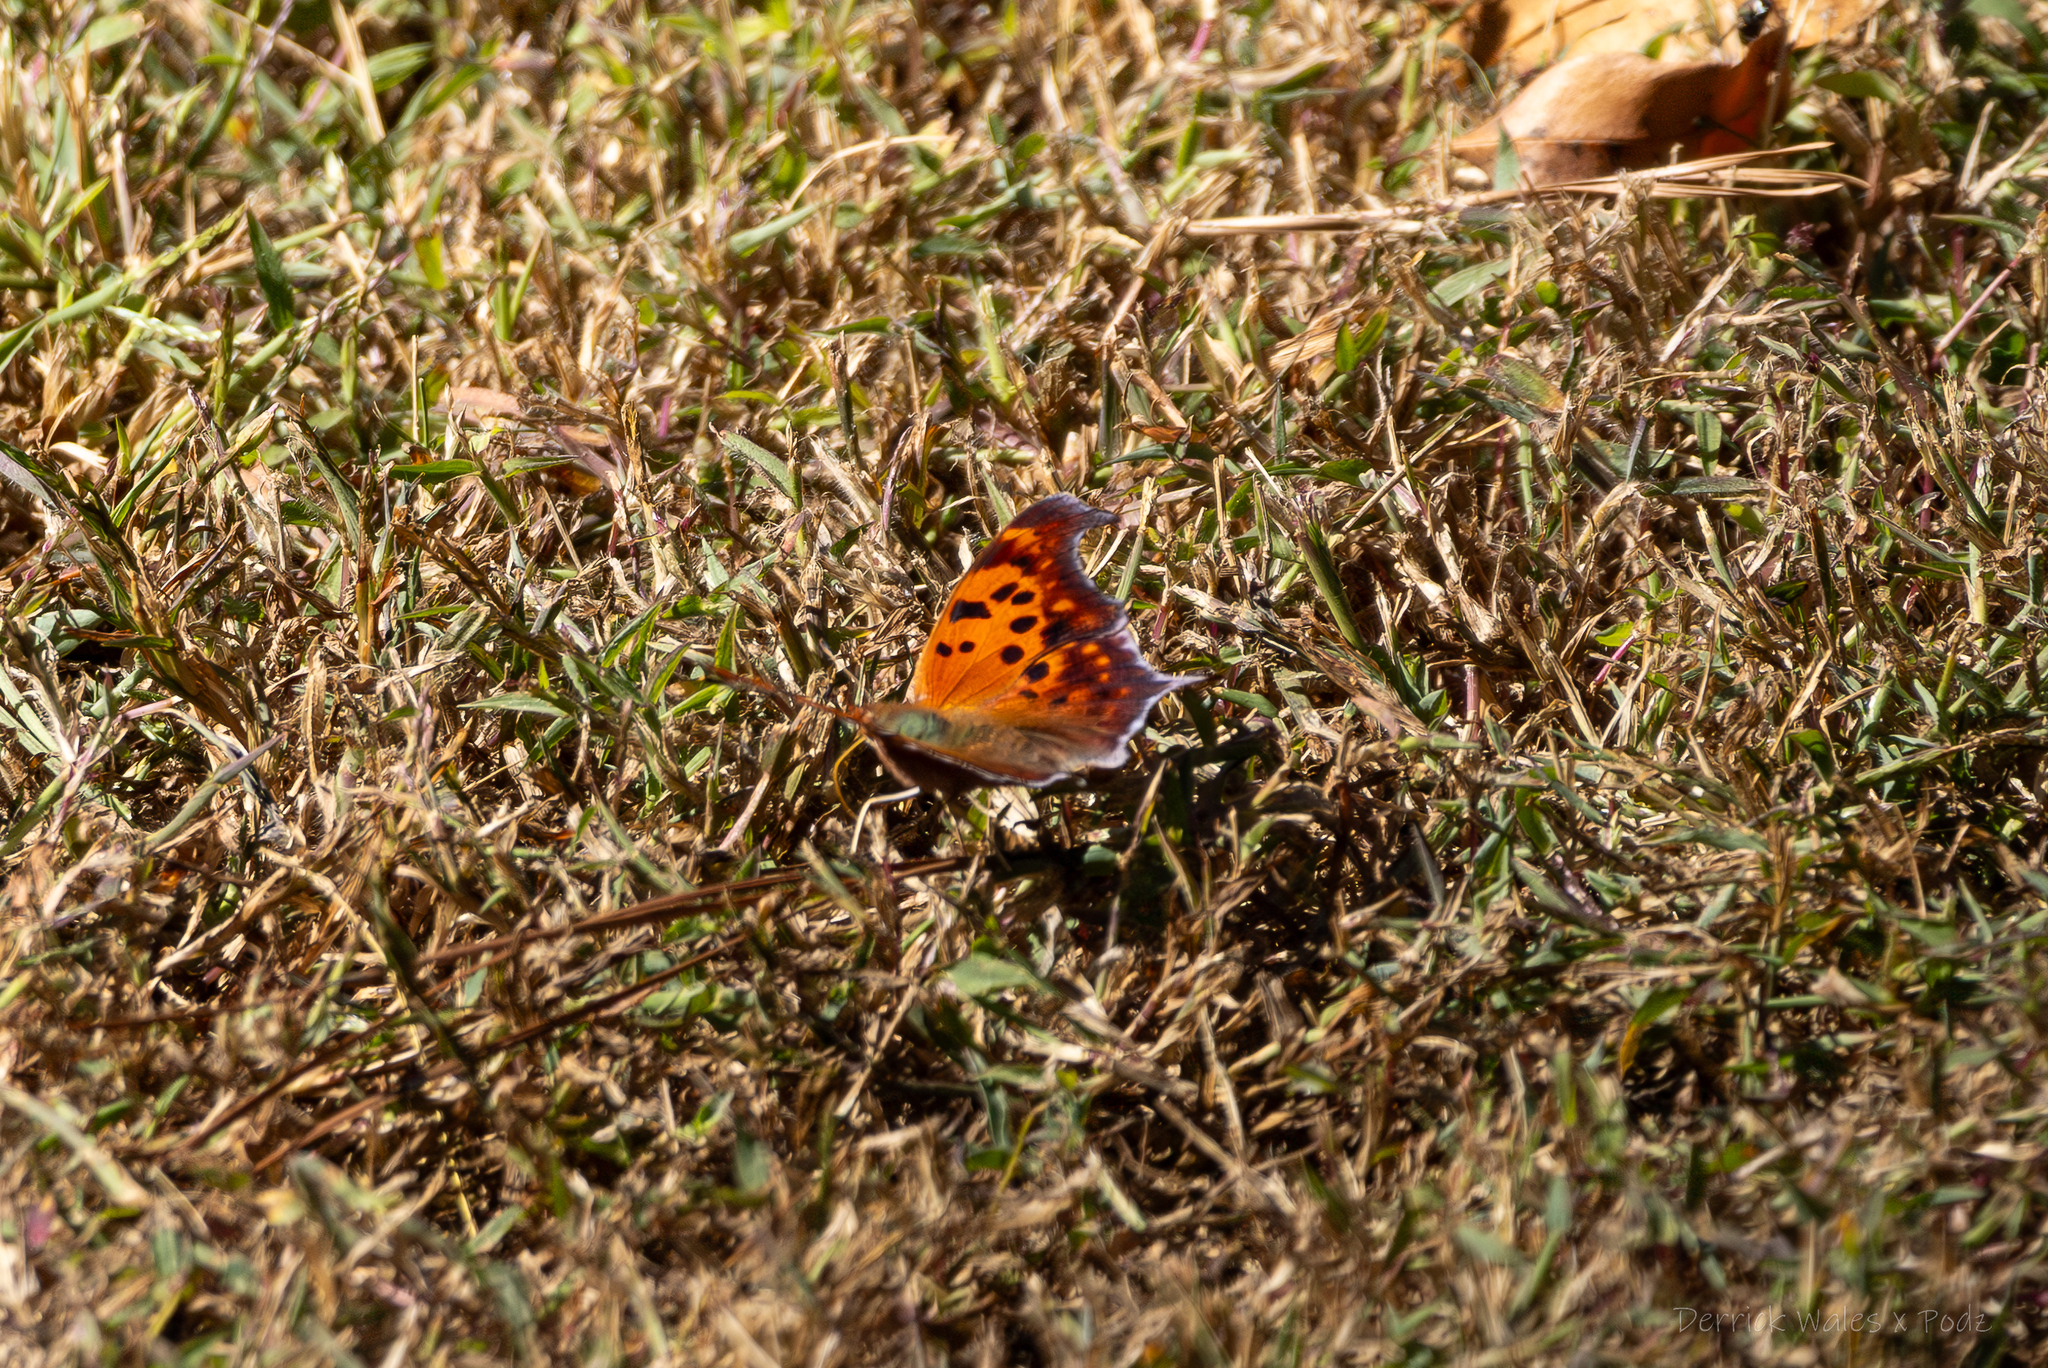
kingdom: Animalia
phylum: Arthropoda
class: Insecta
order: Lepidoptera
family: Nymphalidae
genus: Polygonia
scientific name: Polygonia interrogationis
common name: Question mark
